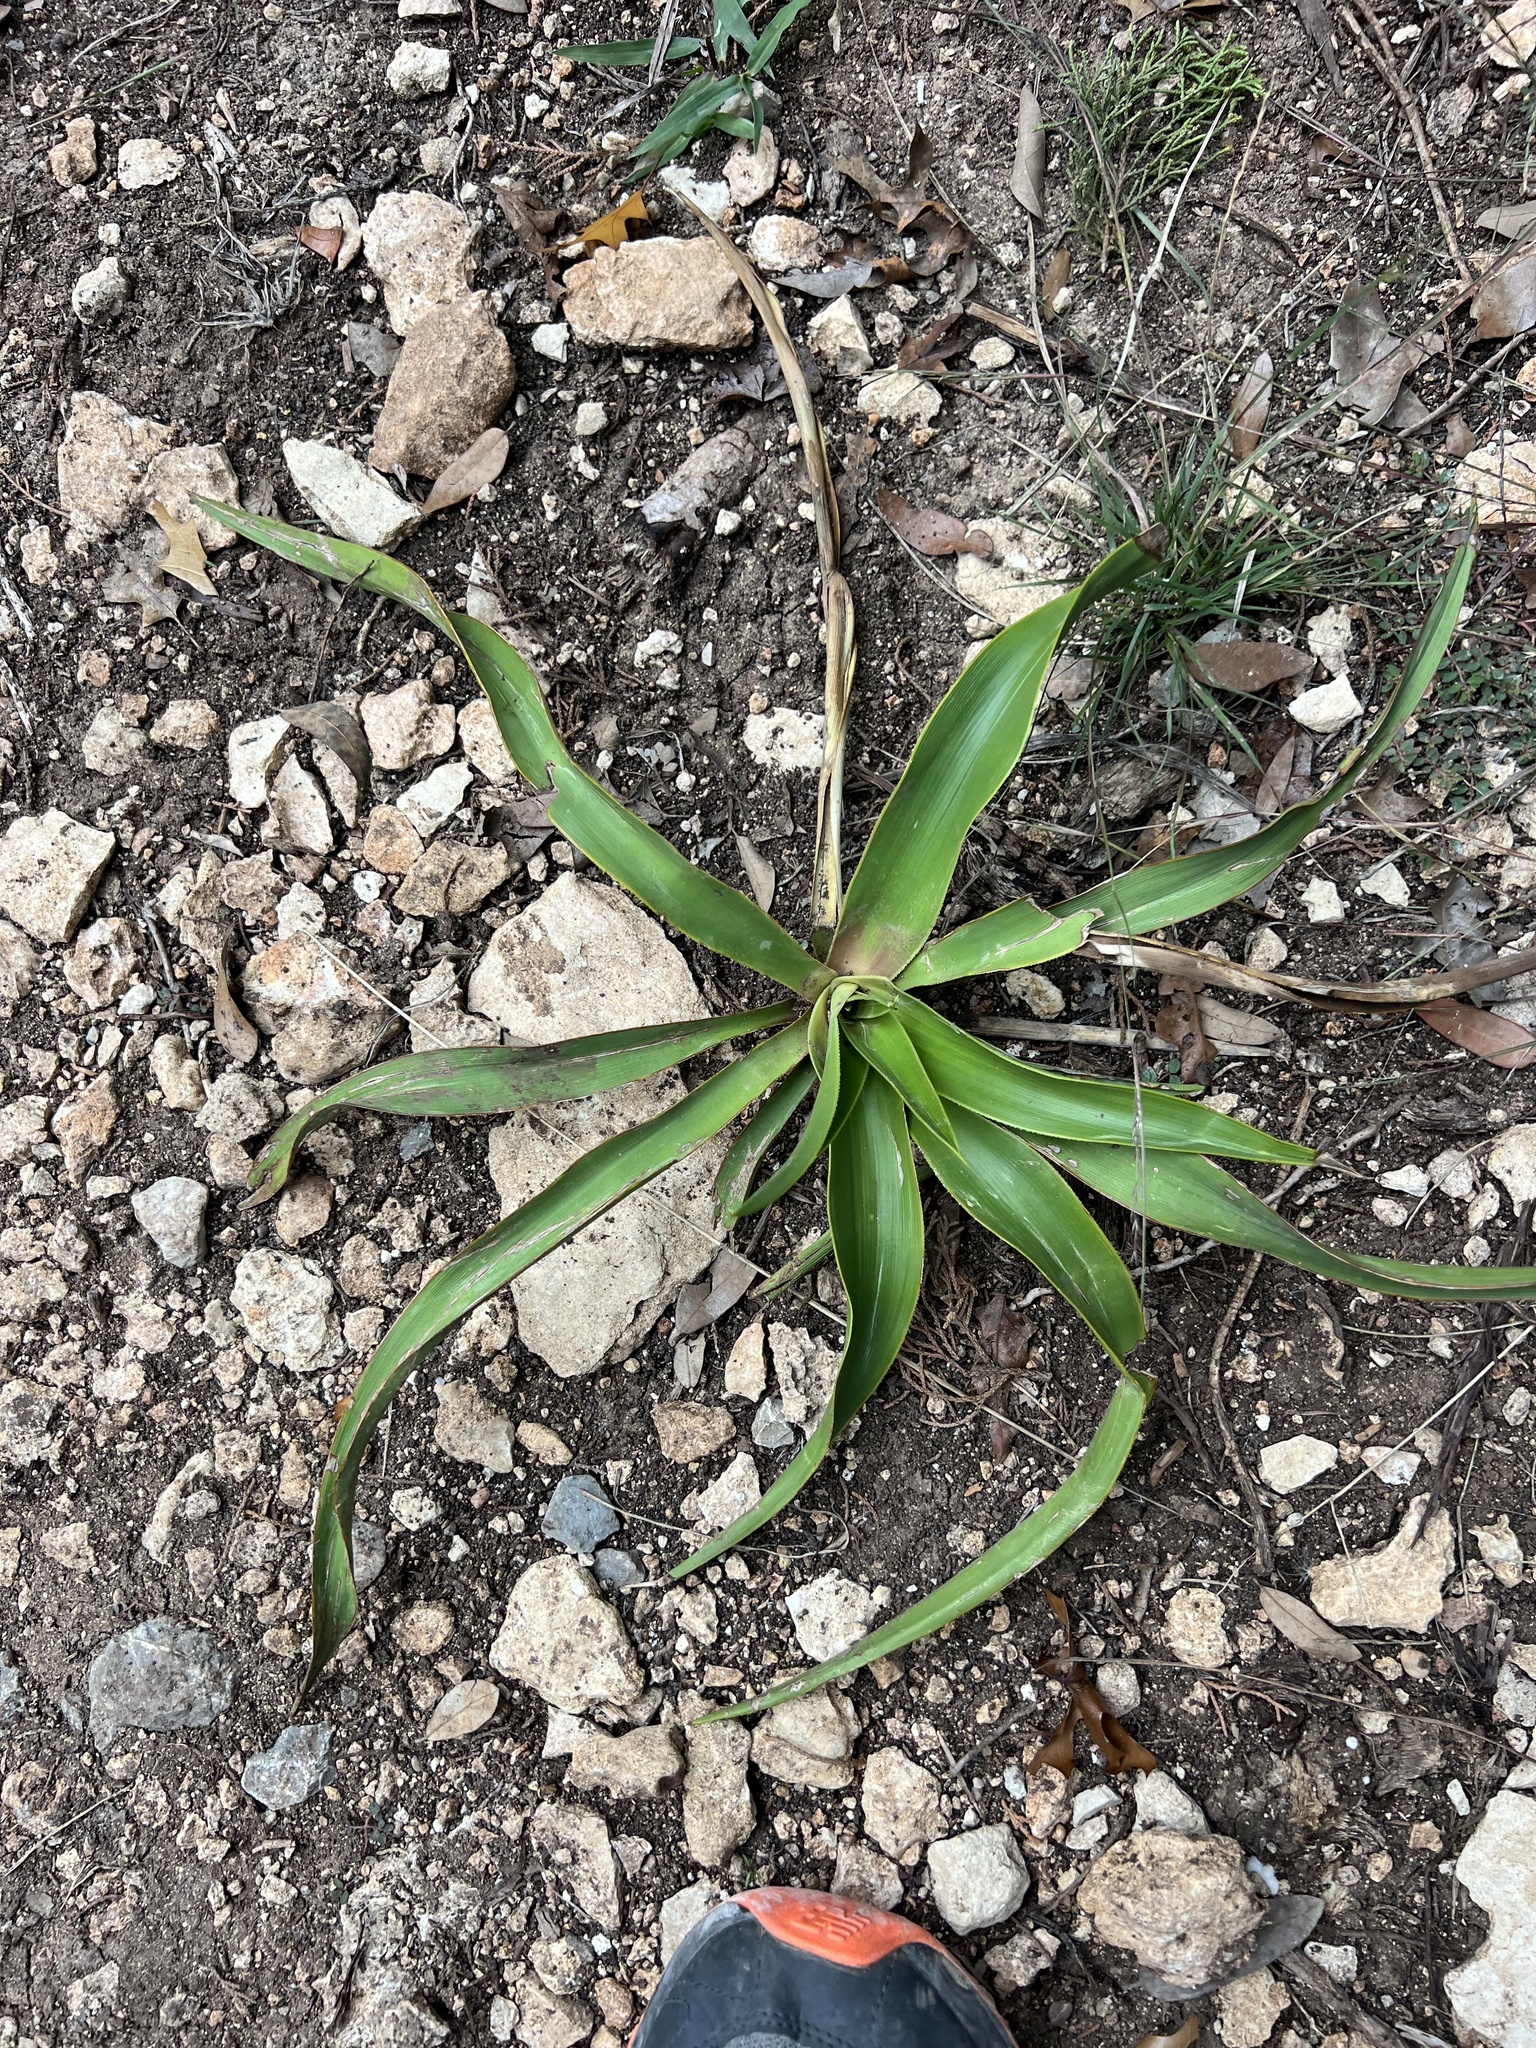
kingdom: Plantae
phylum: Tracheophyta
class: Liliopsida
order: Asparagales
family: Asparagaceae
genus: Yucca
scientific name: Yucca rupicola
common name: Twisted-leaf spanish-dagger
